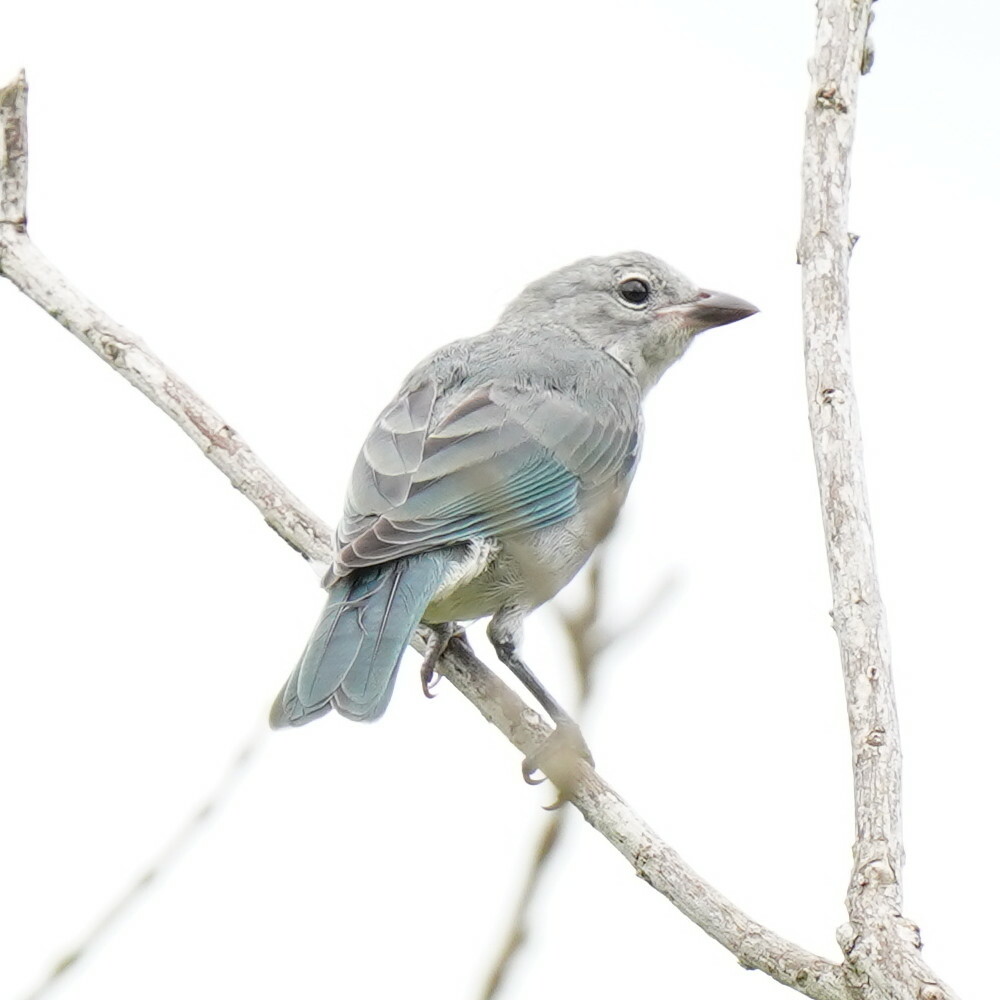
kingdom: Animalia
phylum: Chordata
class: Aves
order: Passeriformes
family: Thraupidae
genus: Thraupis
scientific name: Thraupis sayaca
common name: Sayaca tanager
